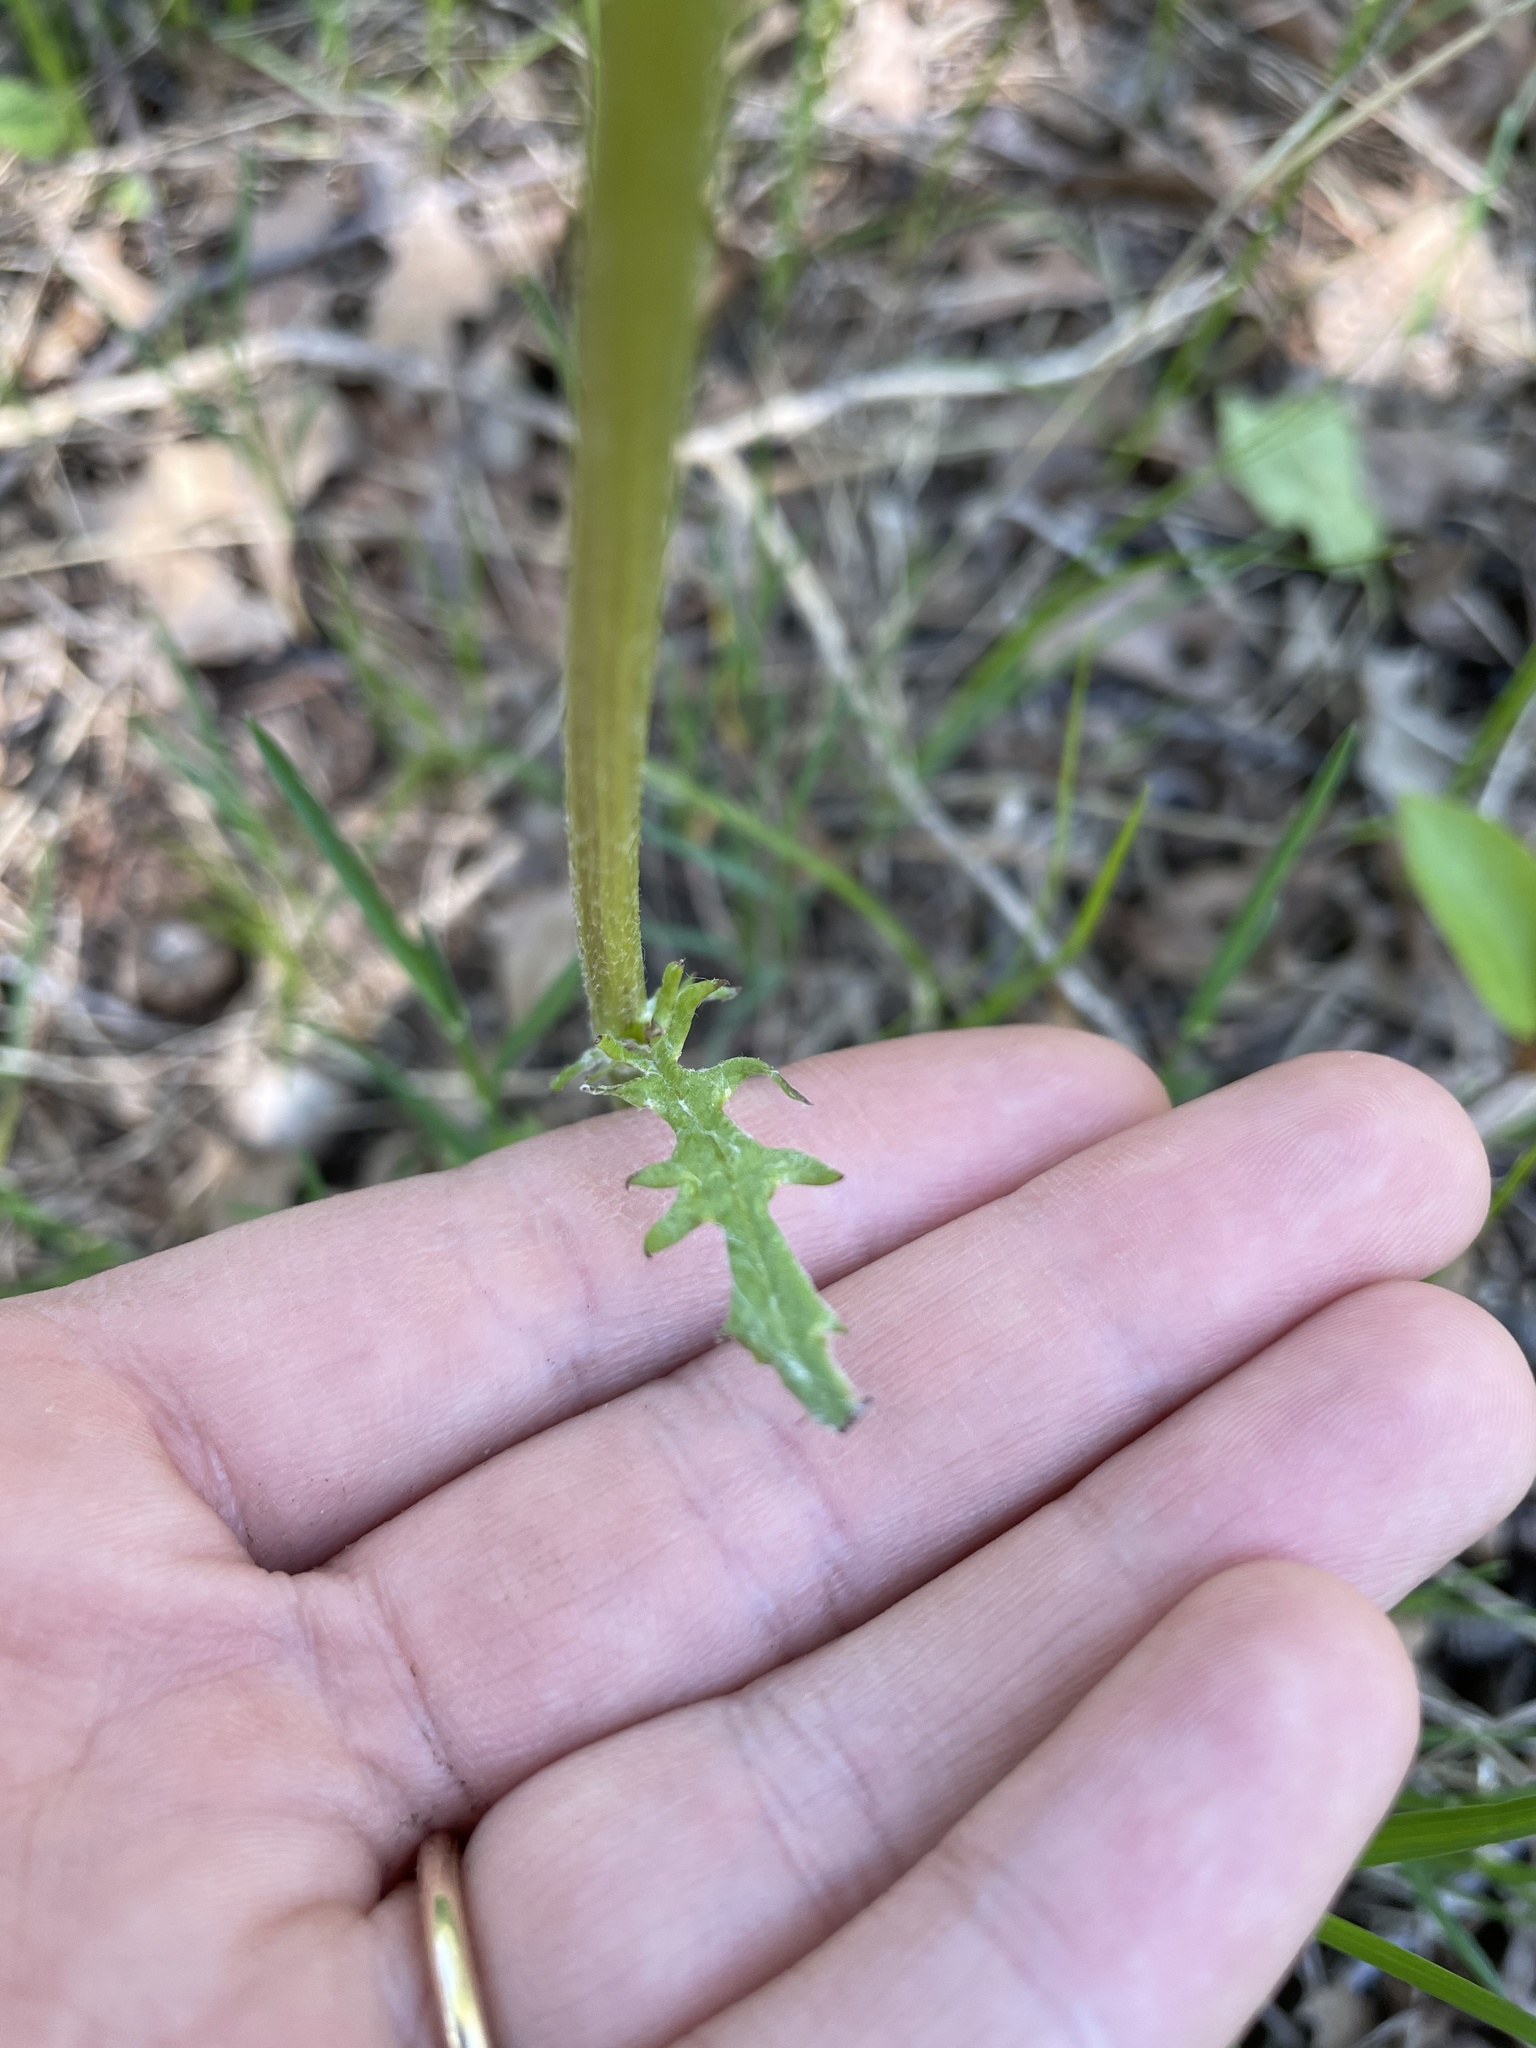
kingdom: Plantae
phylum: Tracheophyta
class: Magnoliopsida
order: Asterales
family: Asteraceae
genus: Packera
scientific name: Packera paupercula
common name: Balsam groundsel
